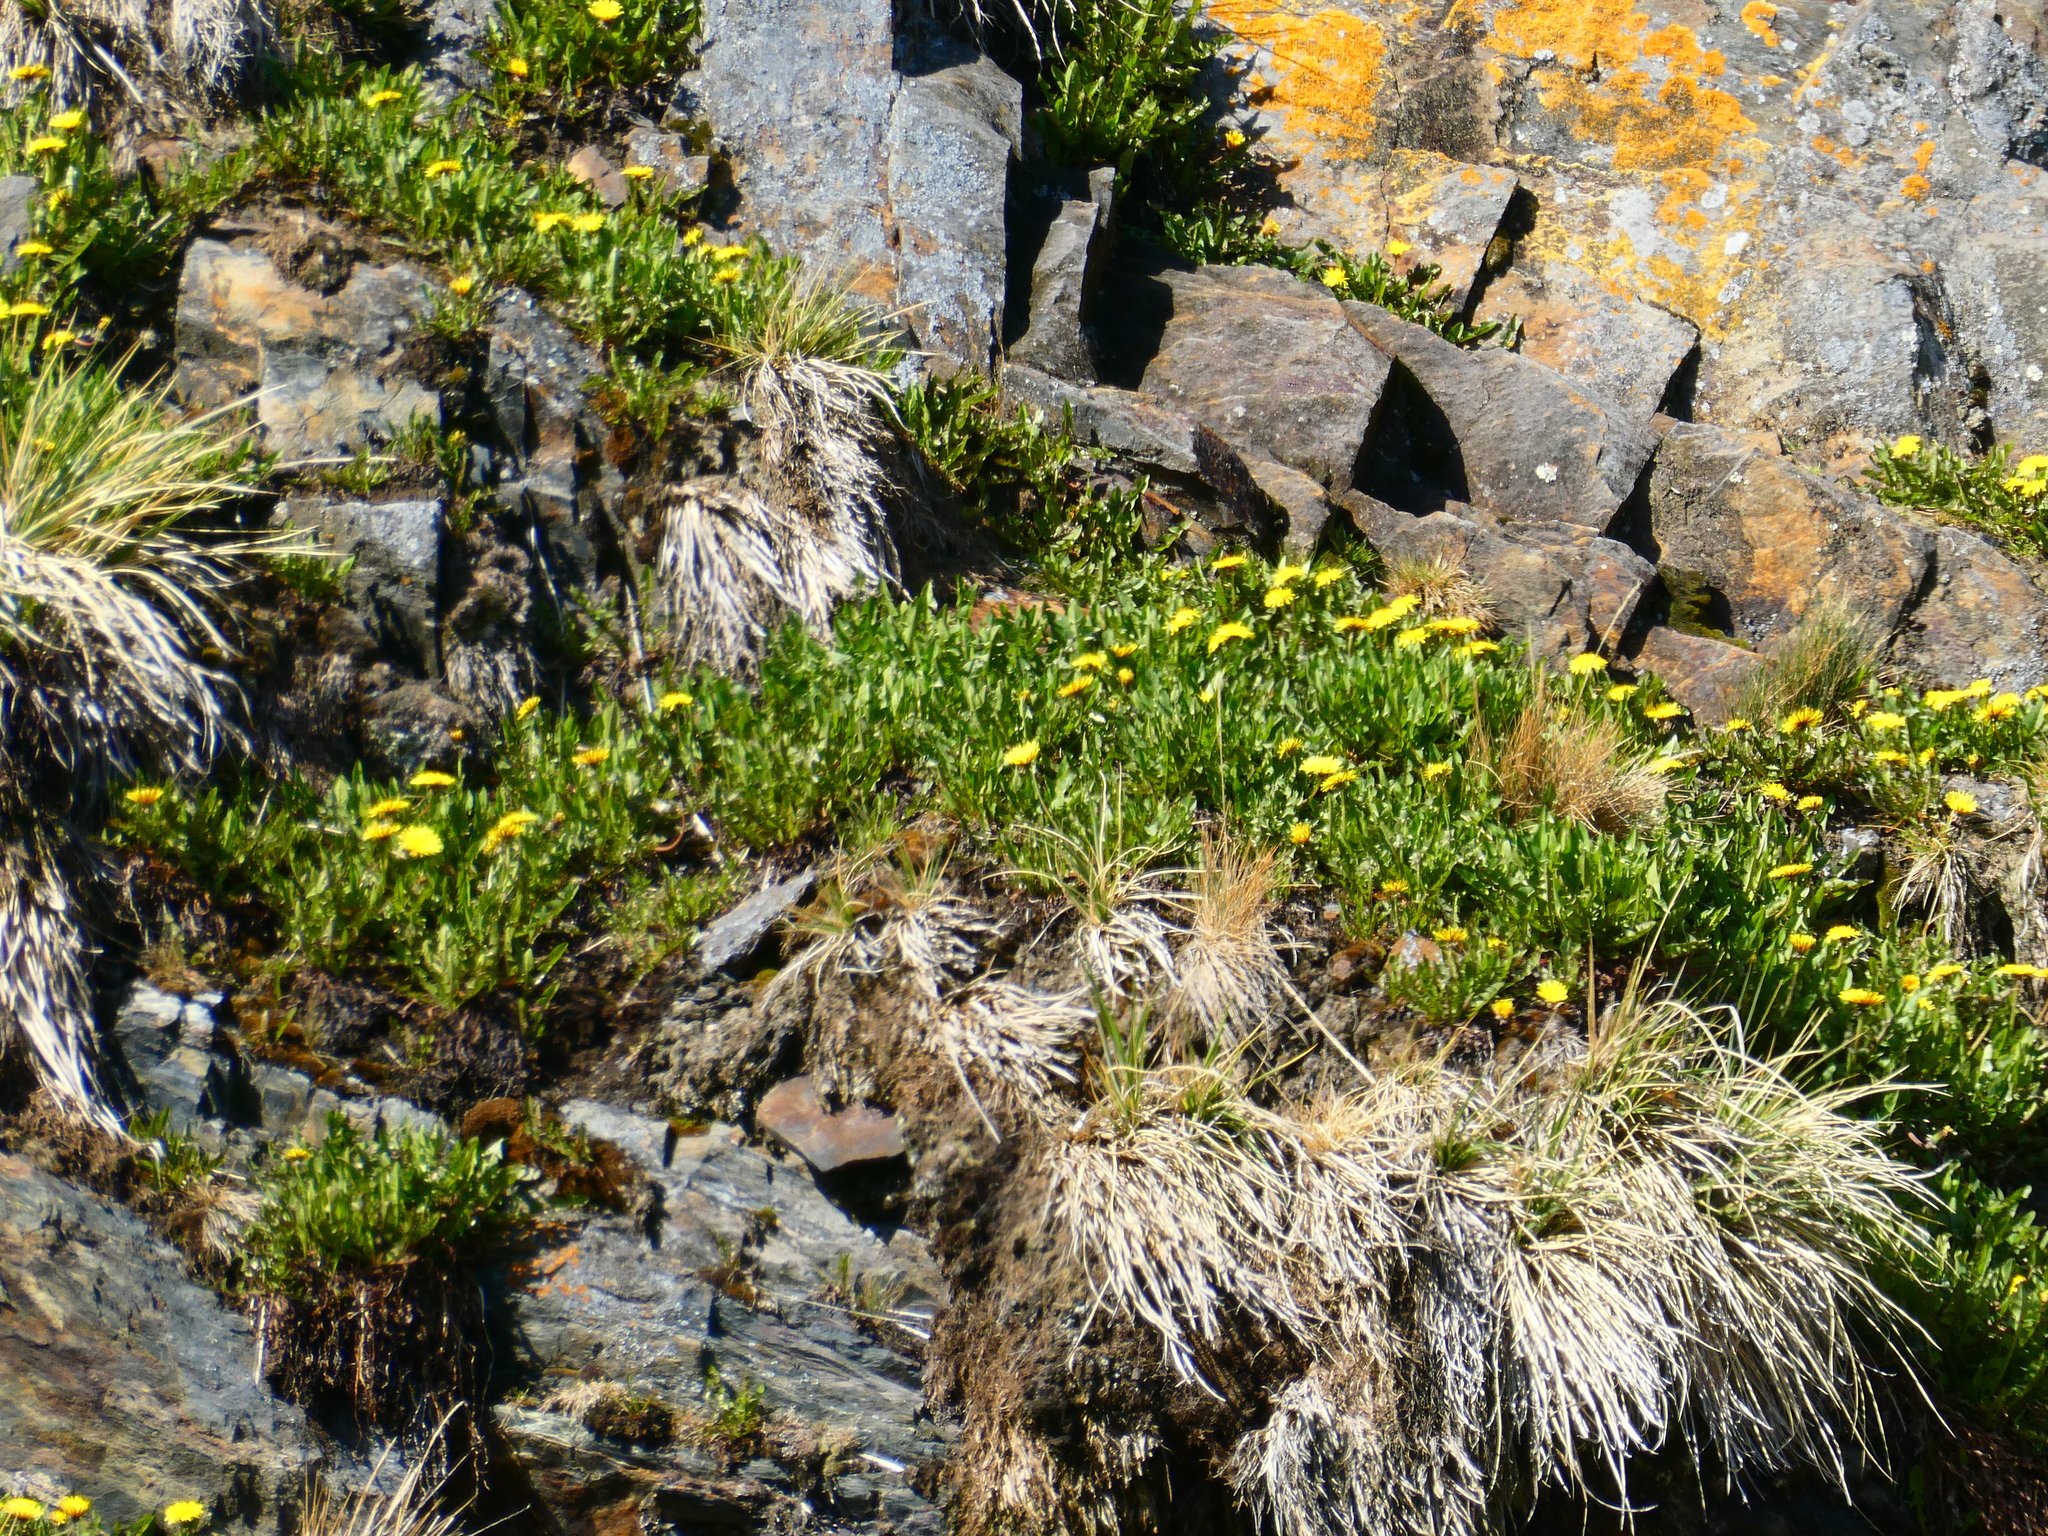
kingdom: Plantae
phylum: Tracheophyta
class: Magnoliopsida
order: Asterales
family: Asteraceae
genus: Taraxacum
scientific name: Taraxacum officinale
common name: Common dandelion
